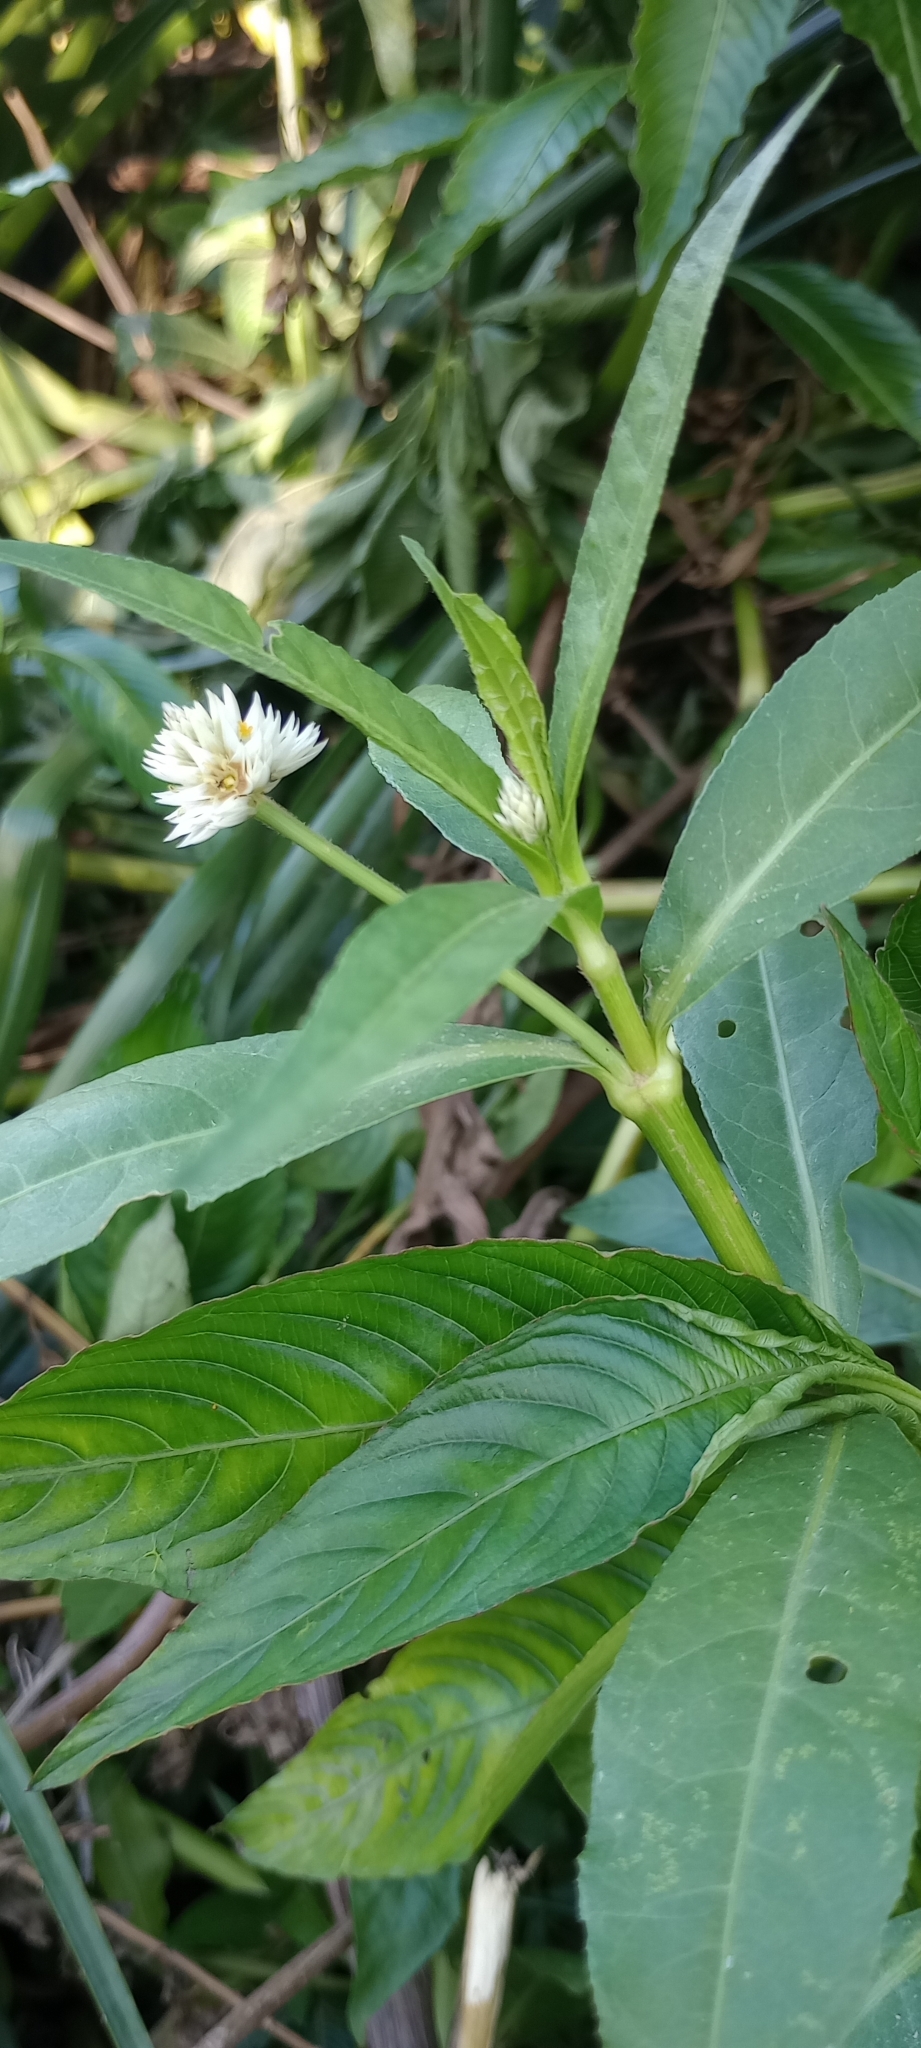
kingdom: Plantae
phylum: Tracheophyta
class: Magnoliopsida
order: Caryophyllales
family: Amaranthaceae
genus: Alternanthera
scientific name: Alternanthera philoxeroides
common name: Alligatorweed
